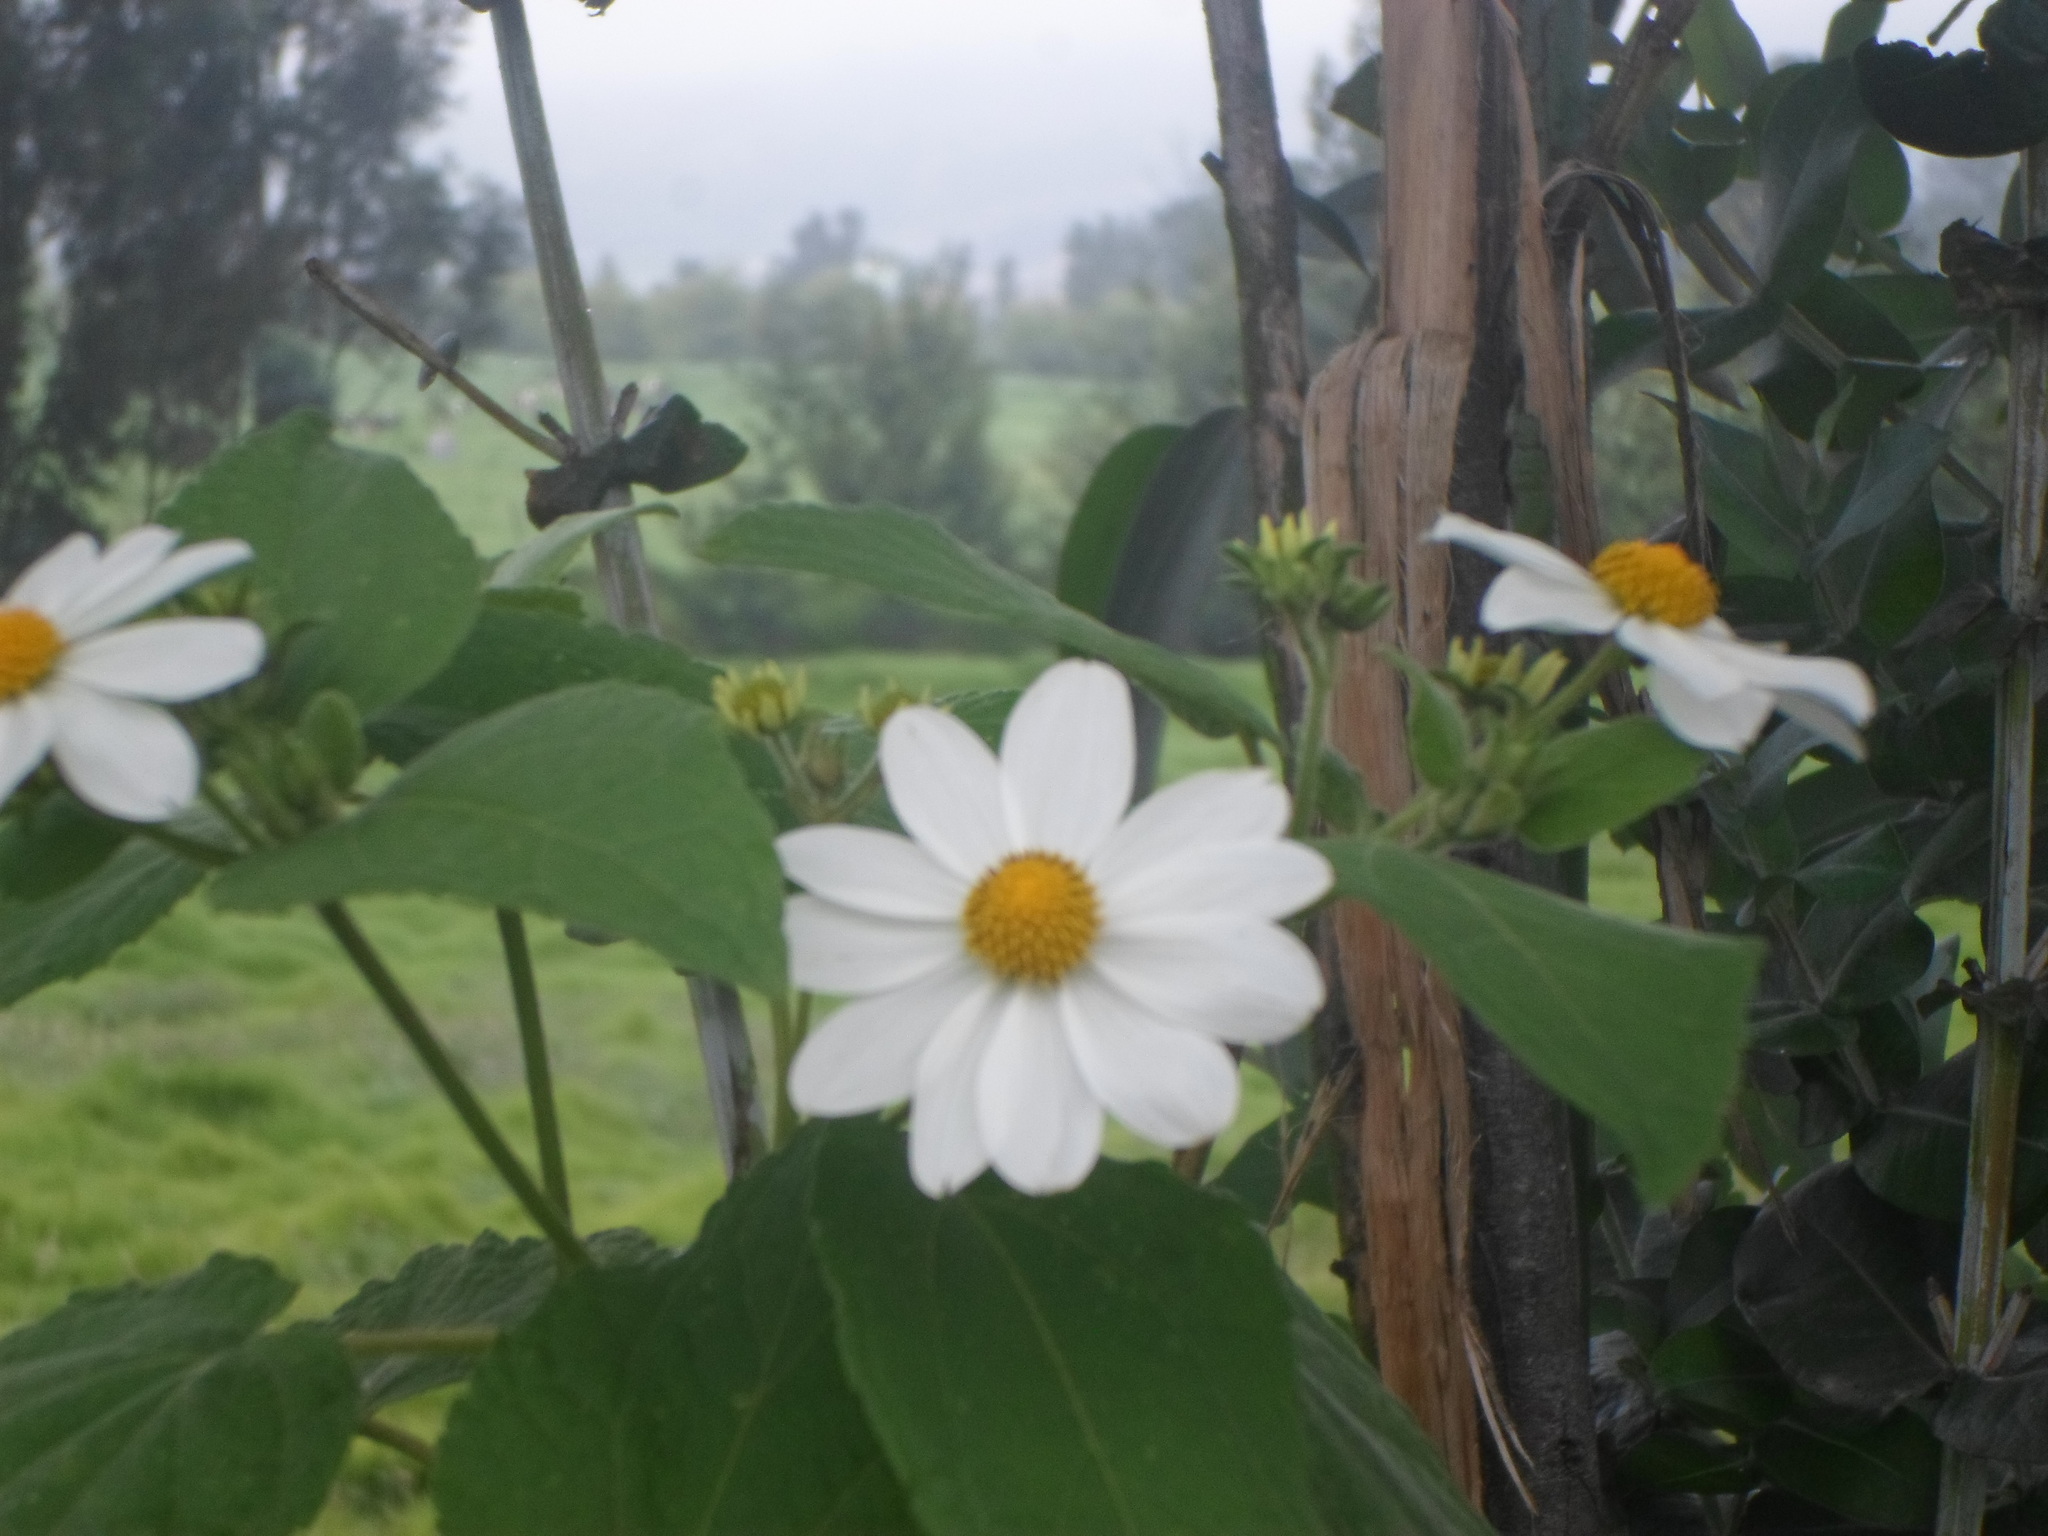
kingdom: Plantae
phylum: Tracheophyta
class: Magnoliopsida
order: Asterales
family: Asteraceae
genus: Montanoa
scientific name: Montanoa ovalifolia
